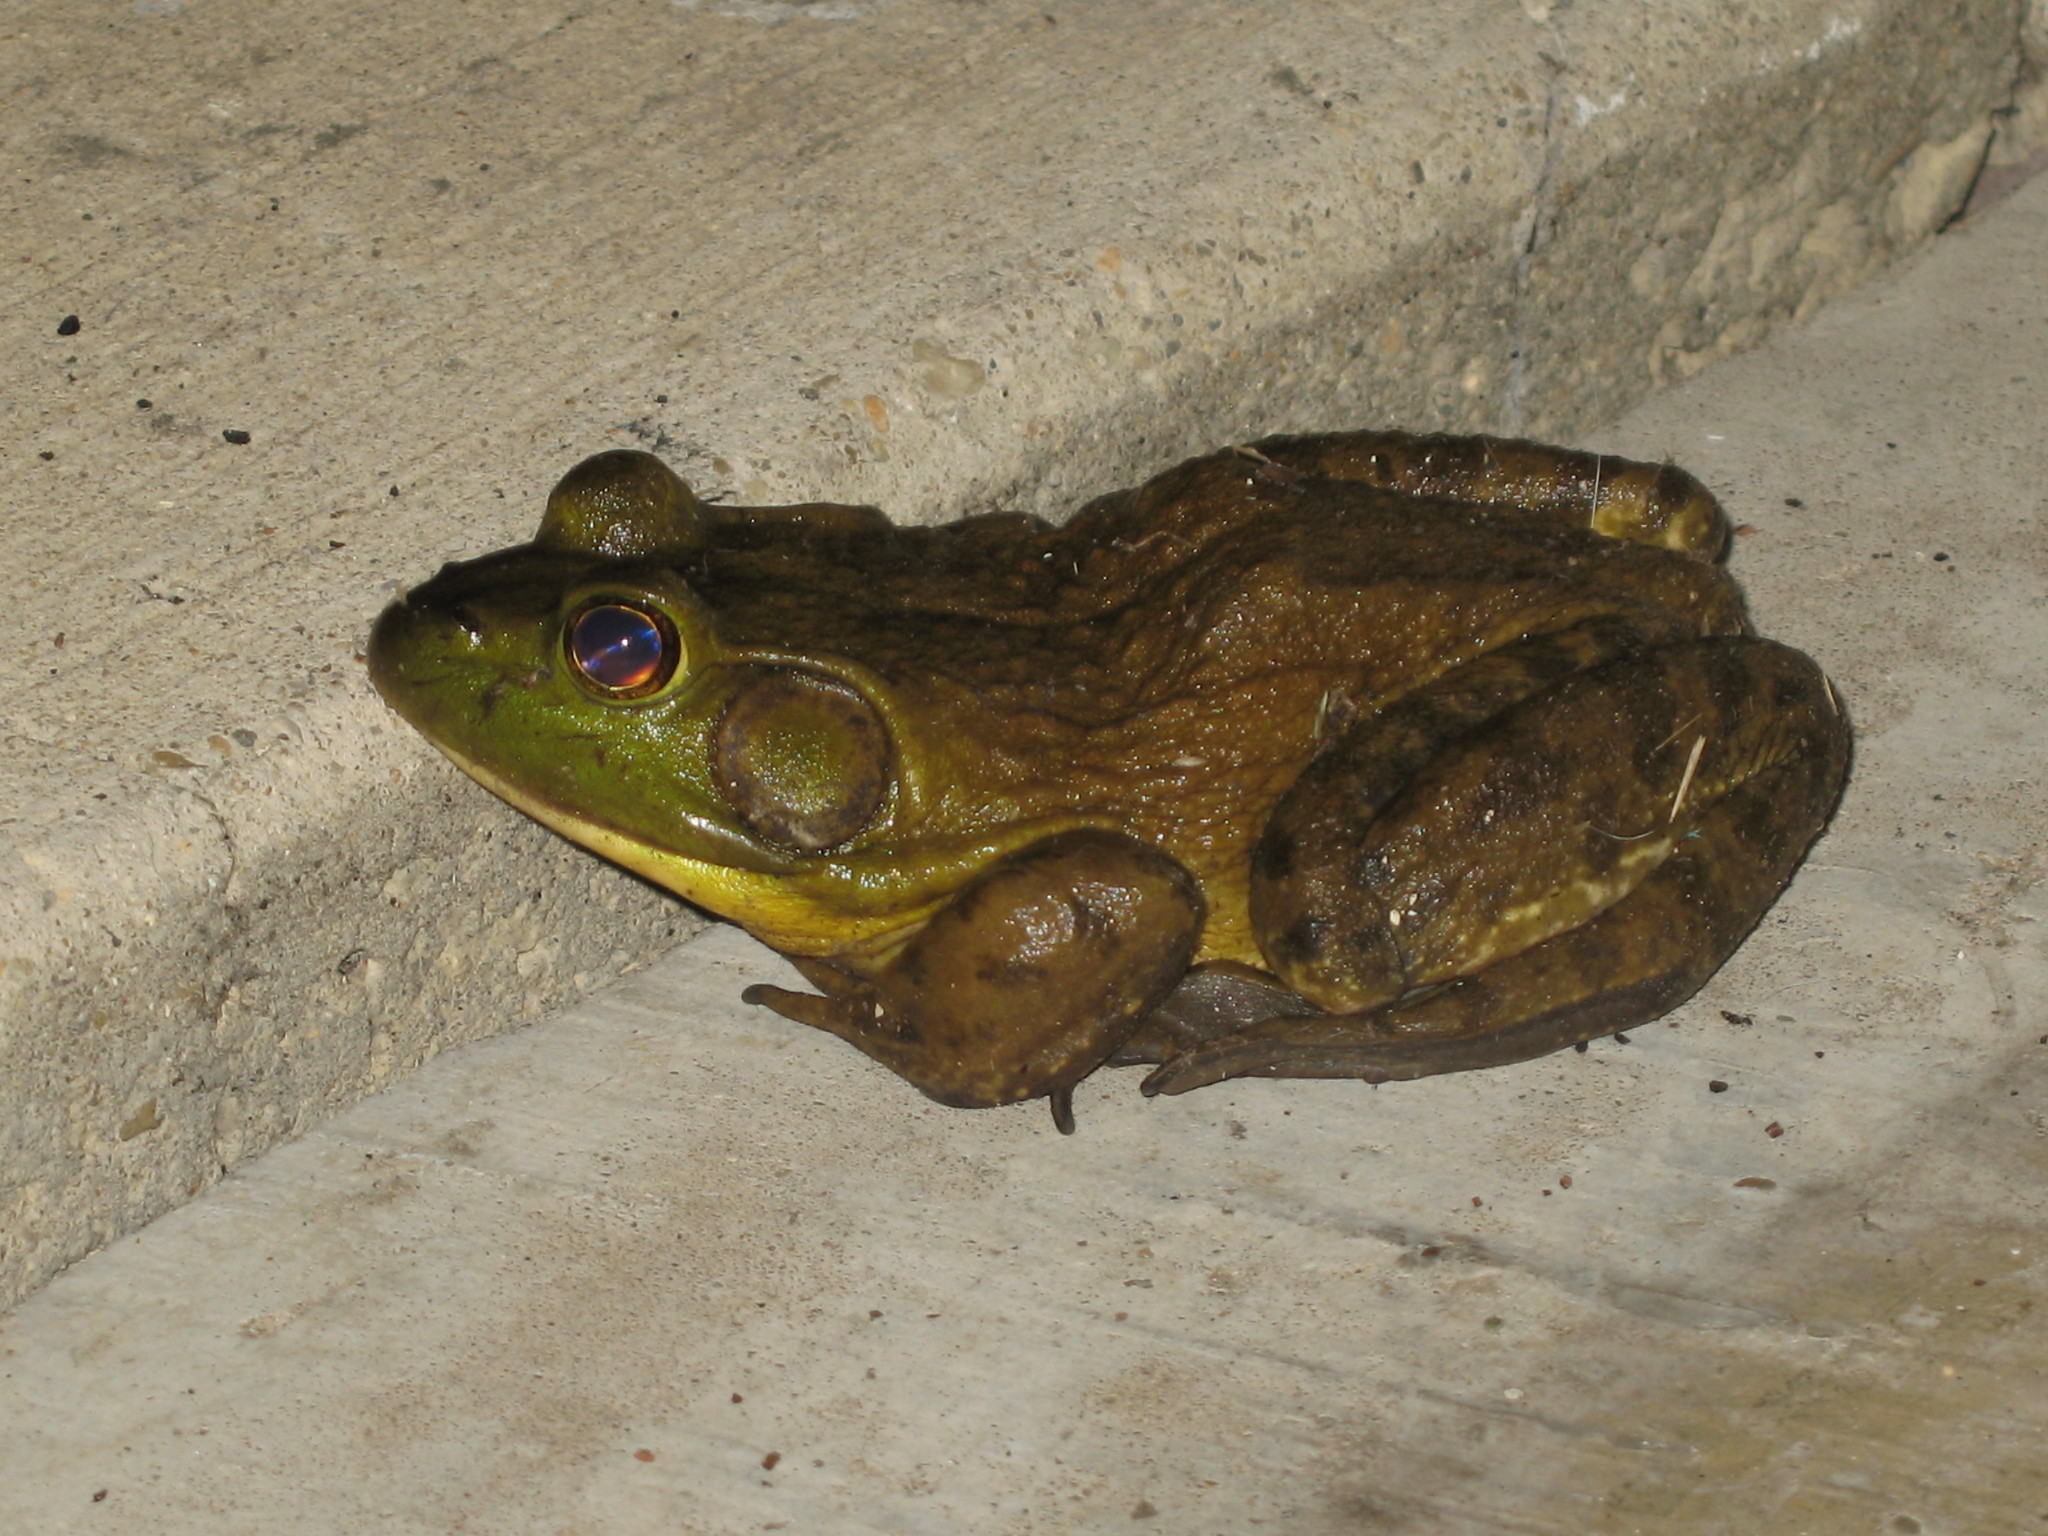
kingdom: Animalia
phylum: Chordata
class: Amphibia
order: Anura
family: Ranidae
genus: Lithobates
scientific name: Lithobates catesbeianus
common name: American bullfrog
